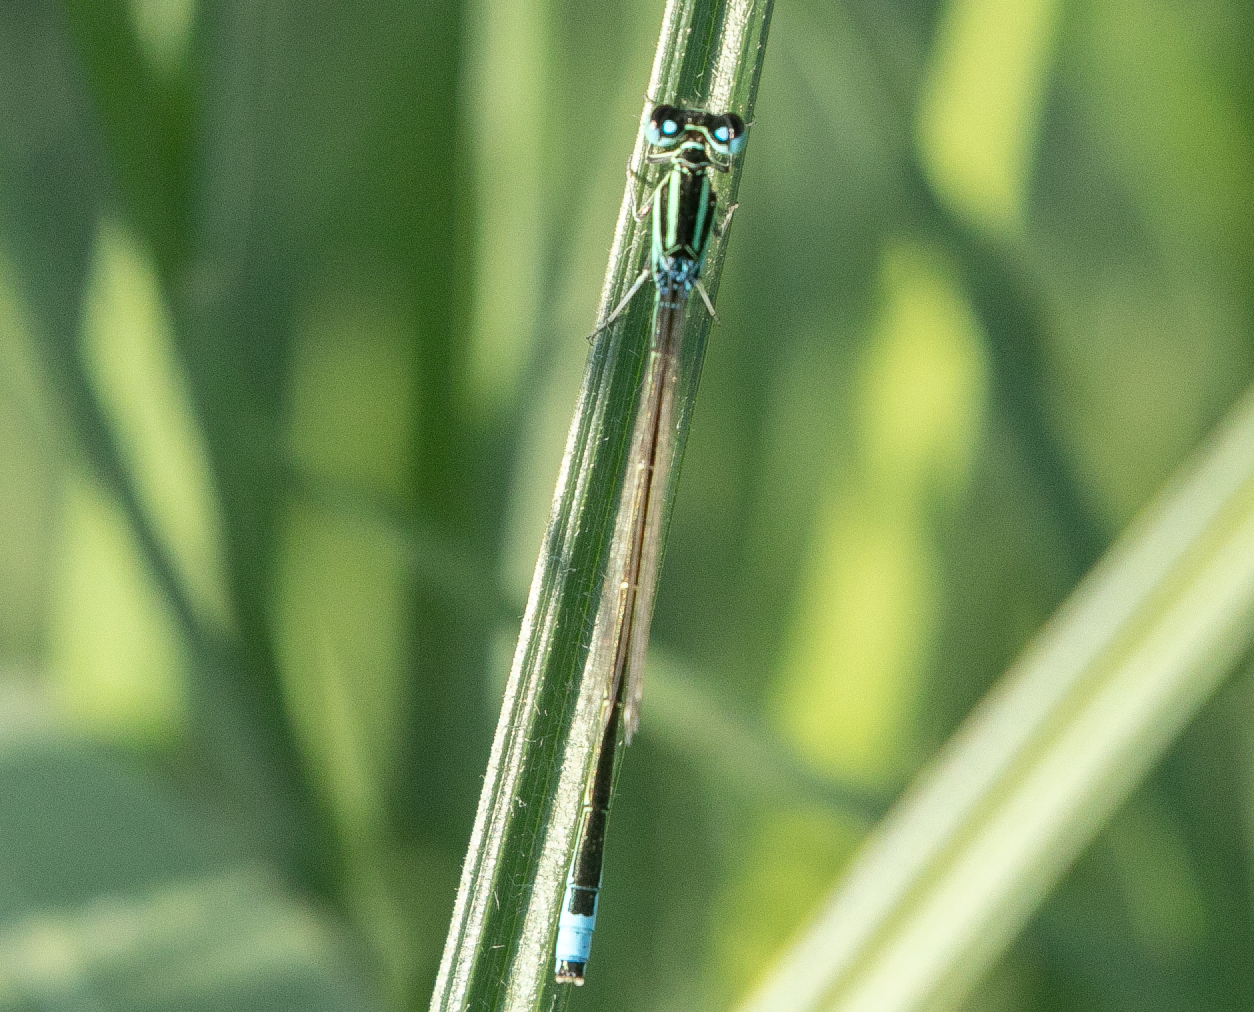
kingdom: Animalia
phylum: Arthropoda
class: Insecta
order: Odonata
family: Coenagrionidae
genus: Ischnura
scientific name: Ischnura pumilio
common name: Scarce blue-tailed damselfly
